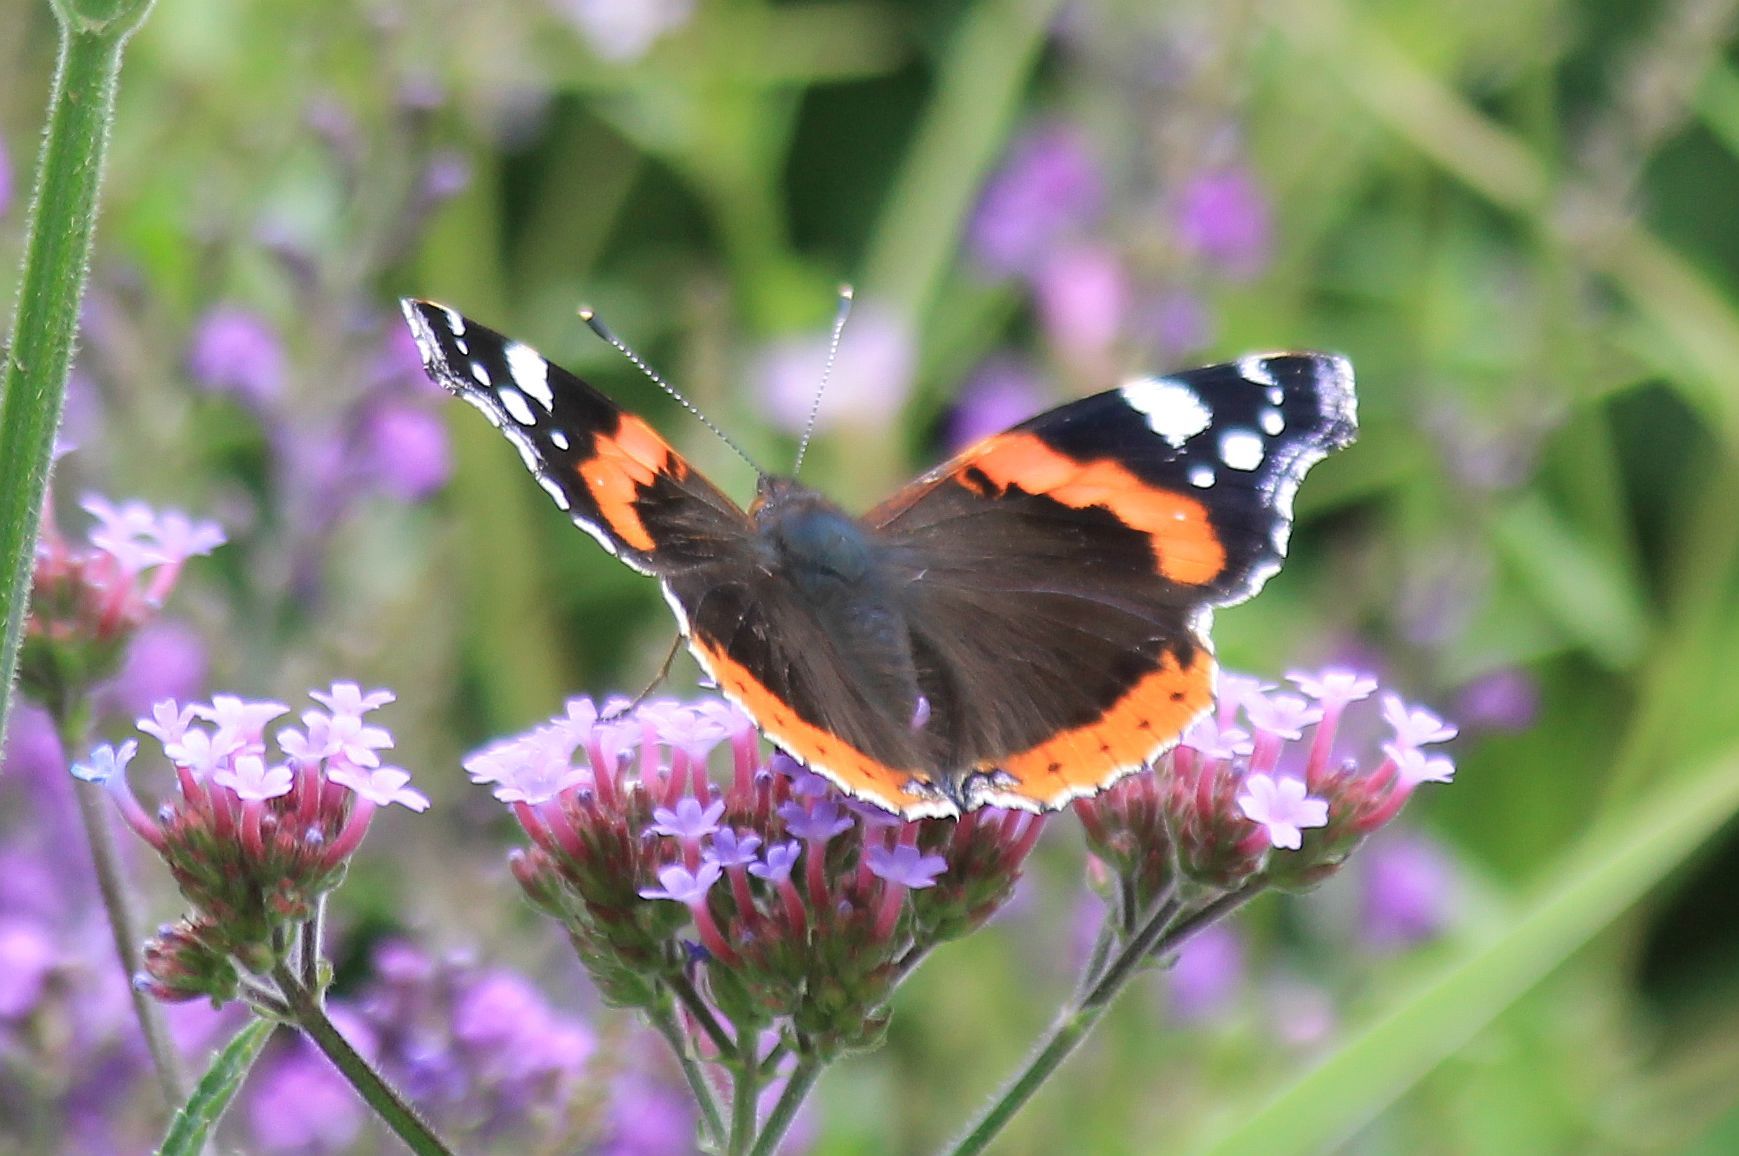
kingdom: Animalia
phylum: Arthropoda
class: Insecta
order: Lepidoptera
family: Nymphalidae
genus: Vanessa
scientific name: Vanessa atalanta
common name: Red admiral
